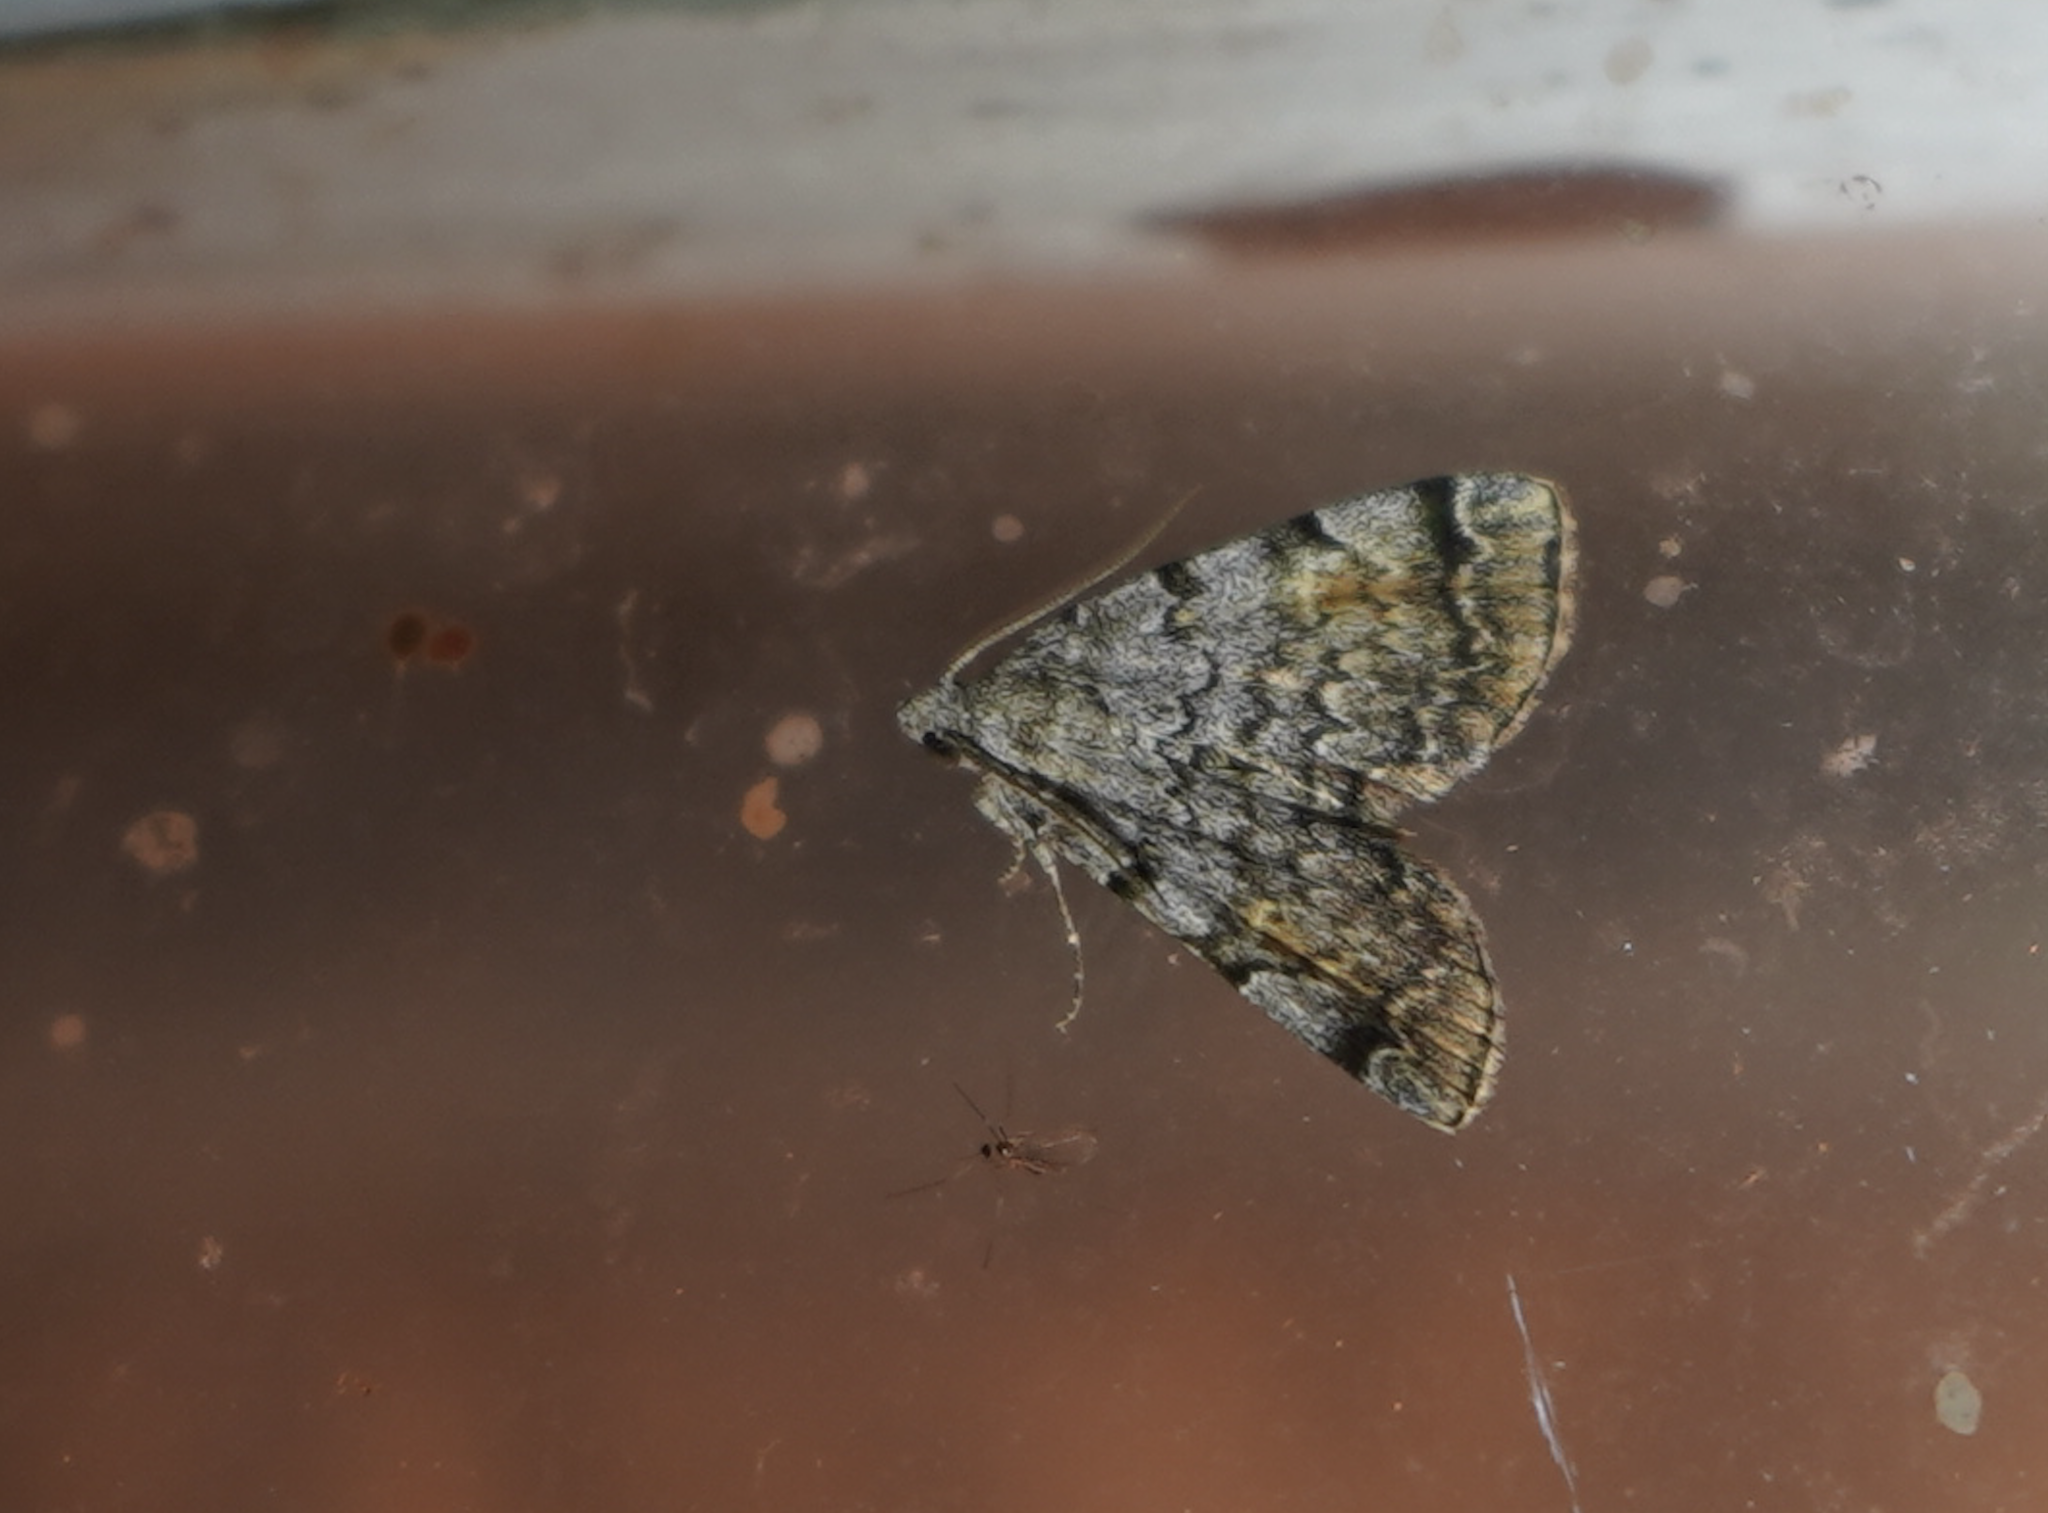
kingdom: Animalia
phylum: Arthropoda
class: Insecta
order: Lepidoptera
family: Erebidae
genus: Idia
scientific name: Idia americalis
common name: American idia moth
